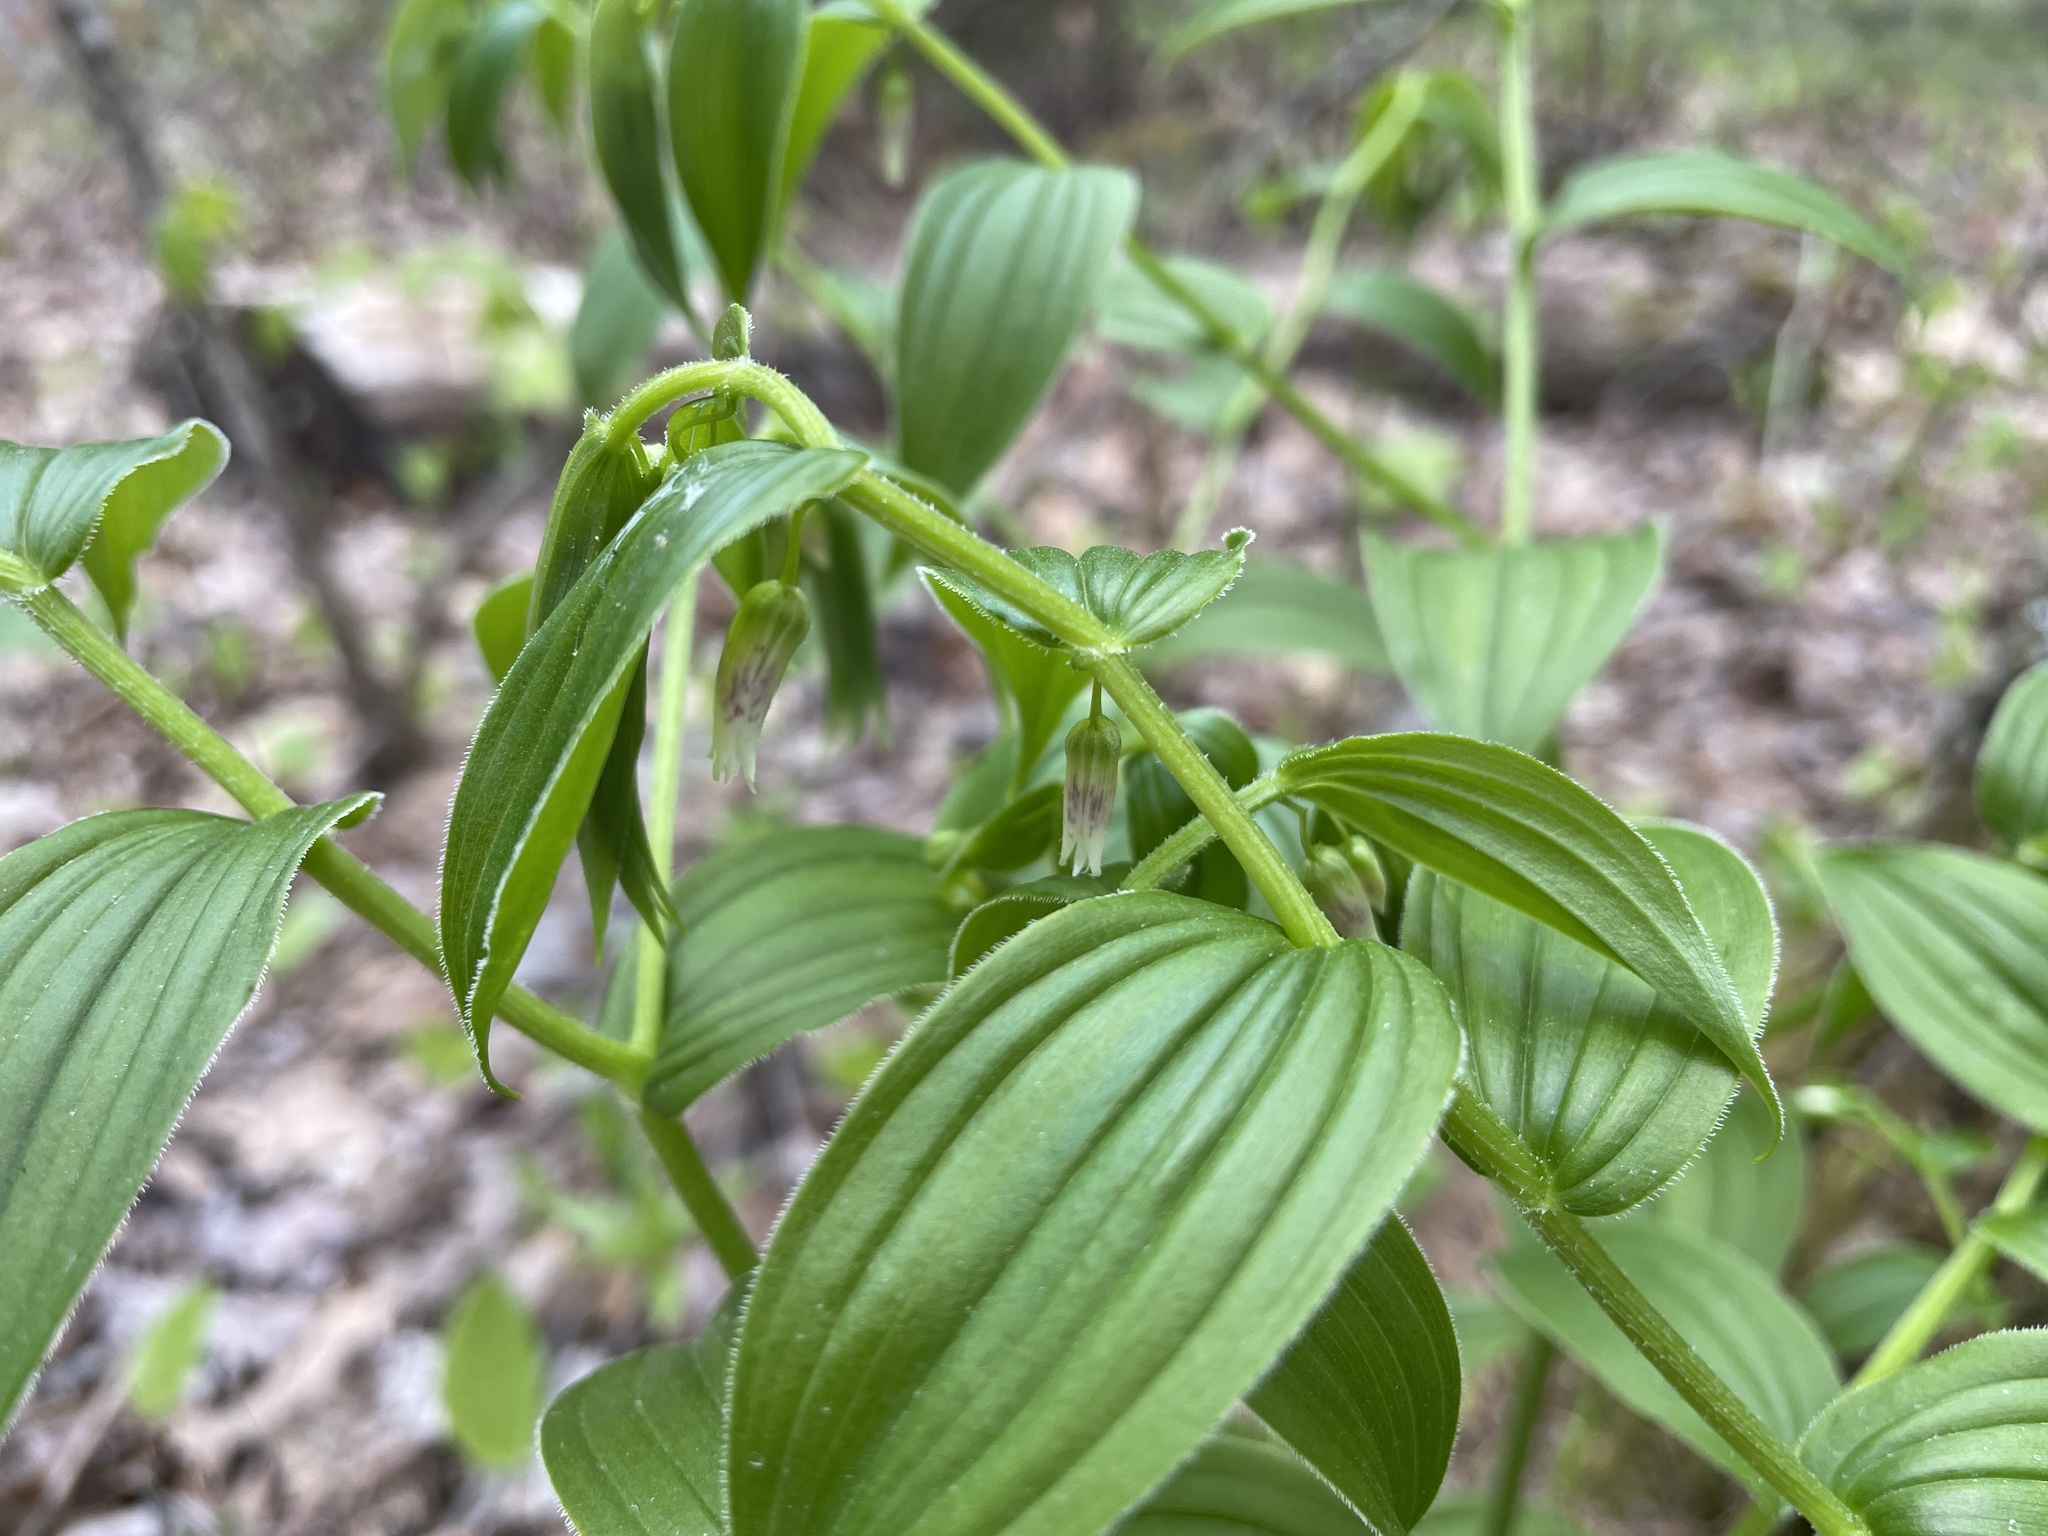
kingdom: Plantae
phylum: Tracheophyta
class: Liliopsida
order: Liliales
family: Liliaceae
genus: Streptopus
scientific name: Streptopus lanceolatus
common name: Rose mandarin
